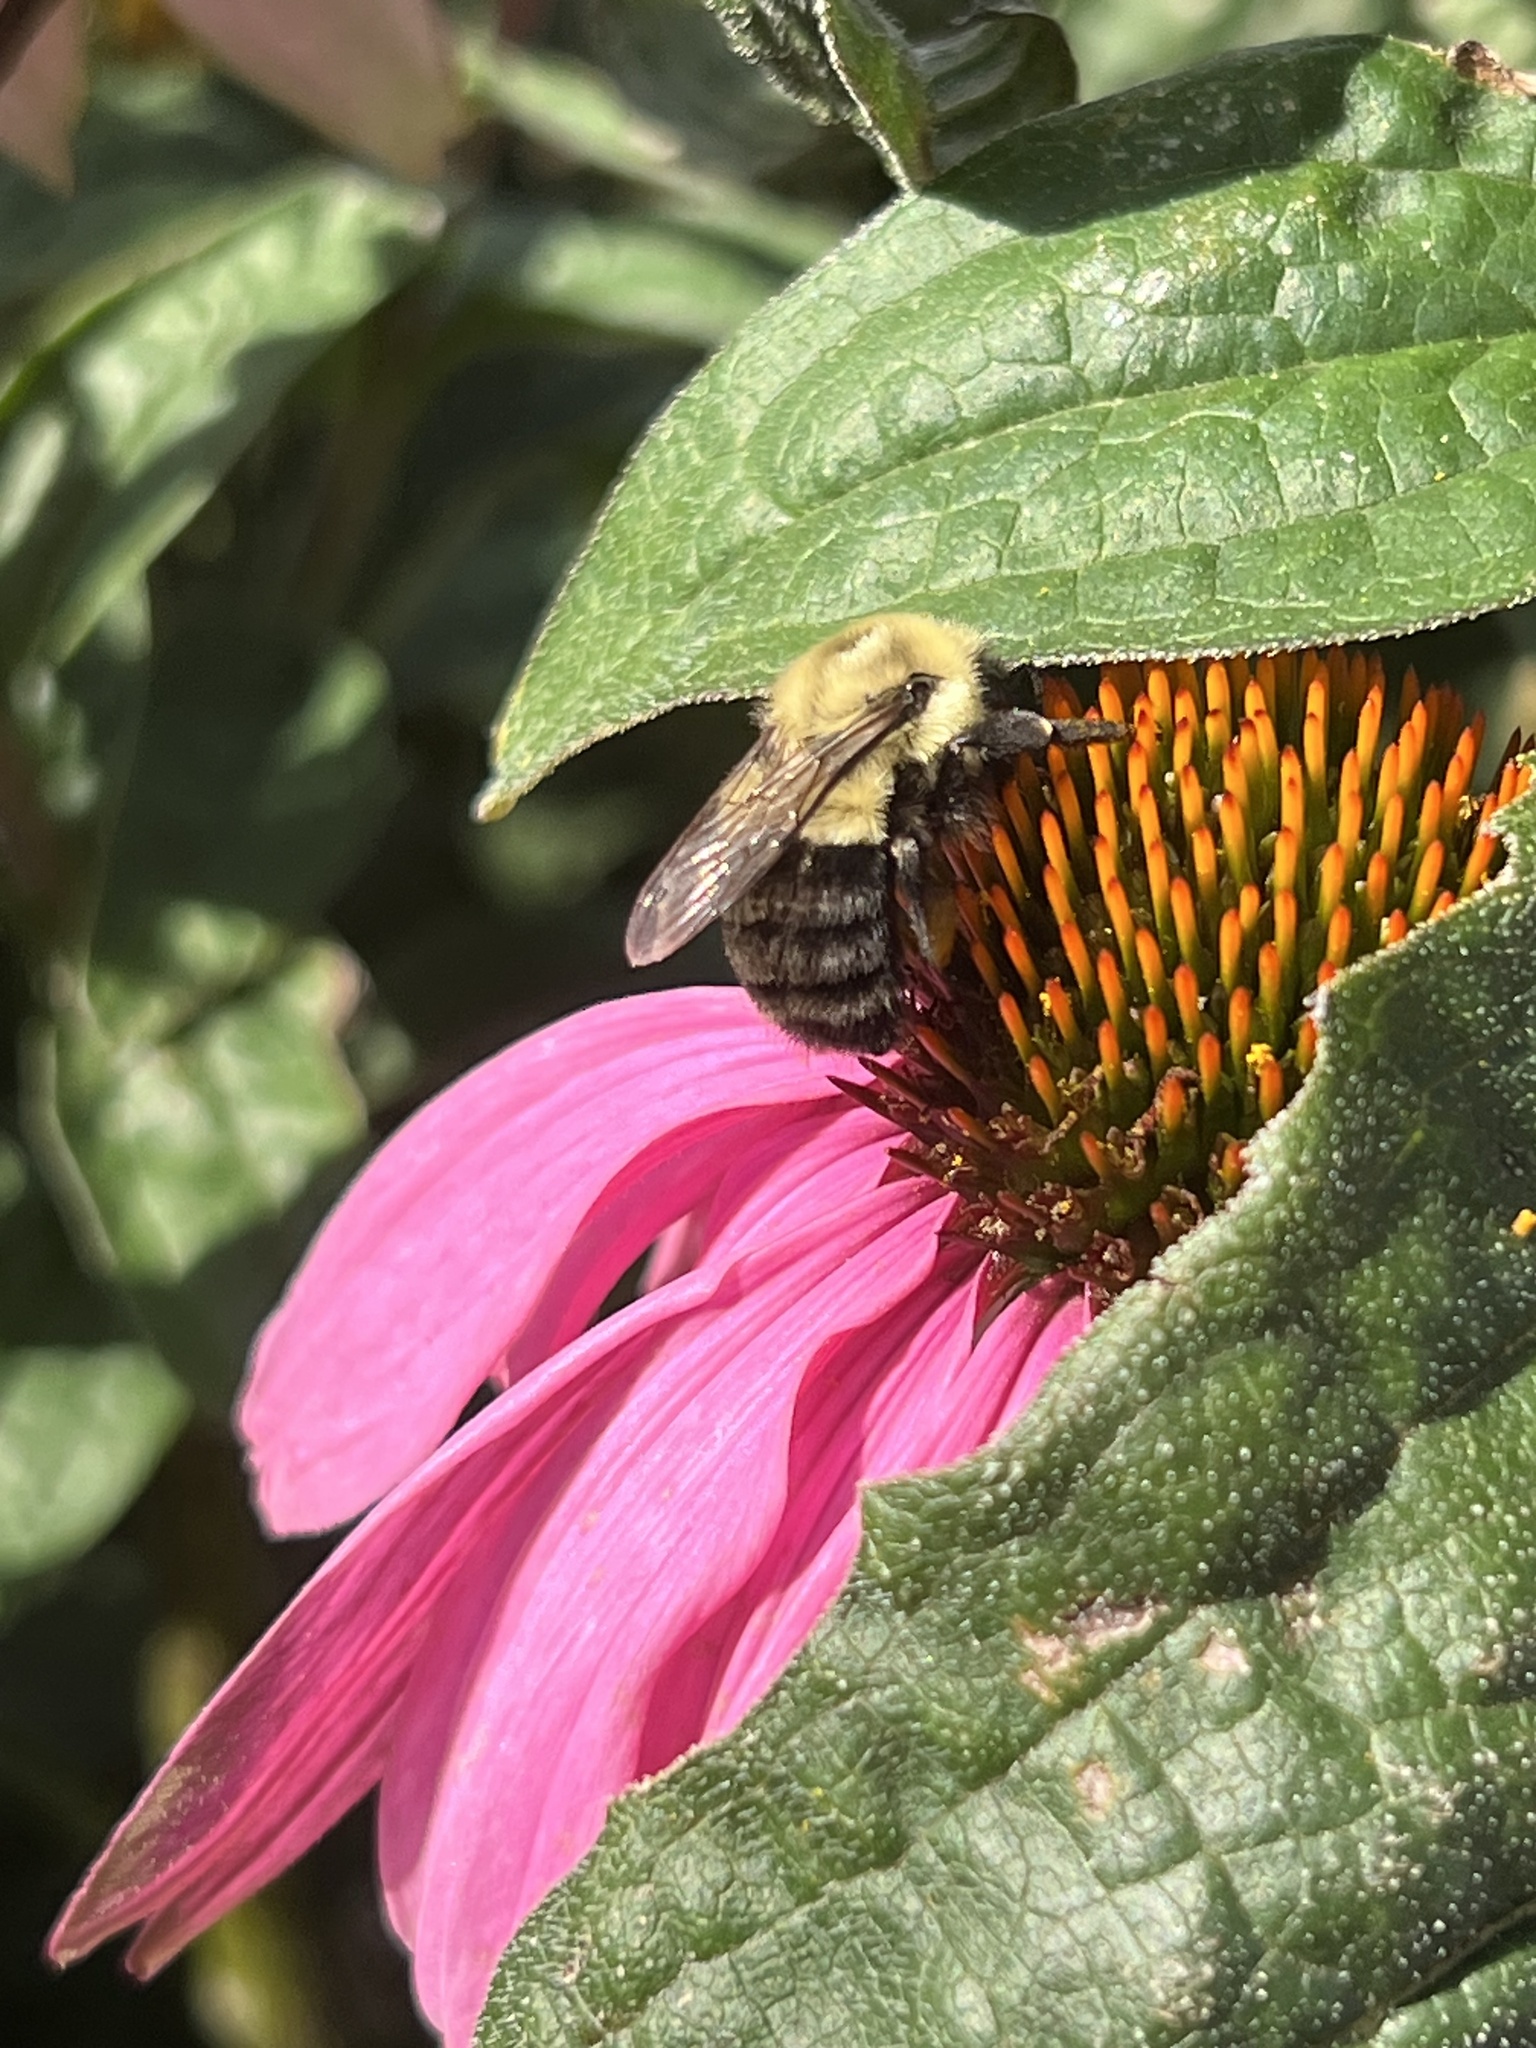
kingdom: Animalia
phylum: Arthropoda
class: Insecta
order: Hymenoptera
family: Apidae
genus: Bombus
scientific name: Bombus impatiens
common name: Common eastern bumble bee
